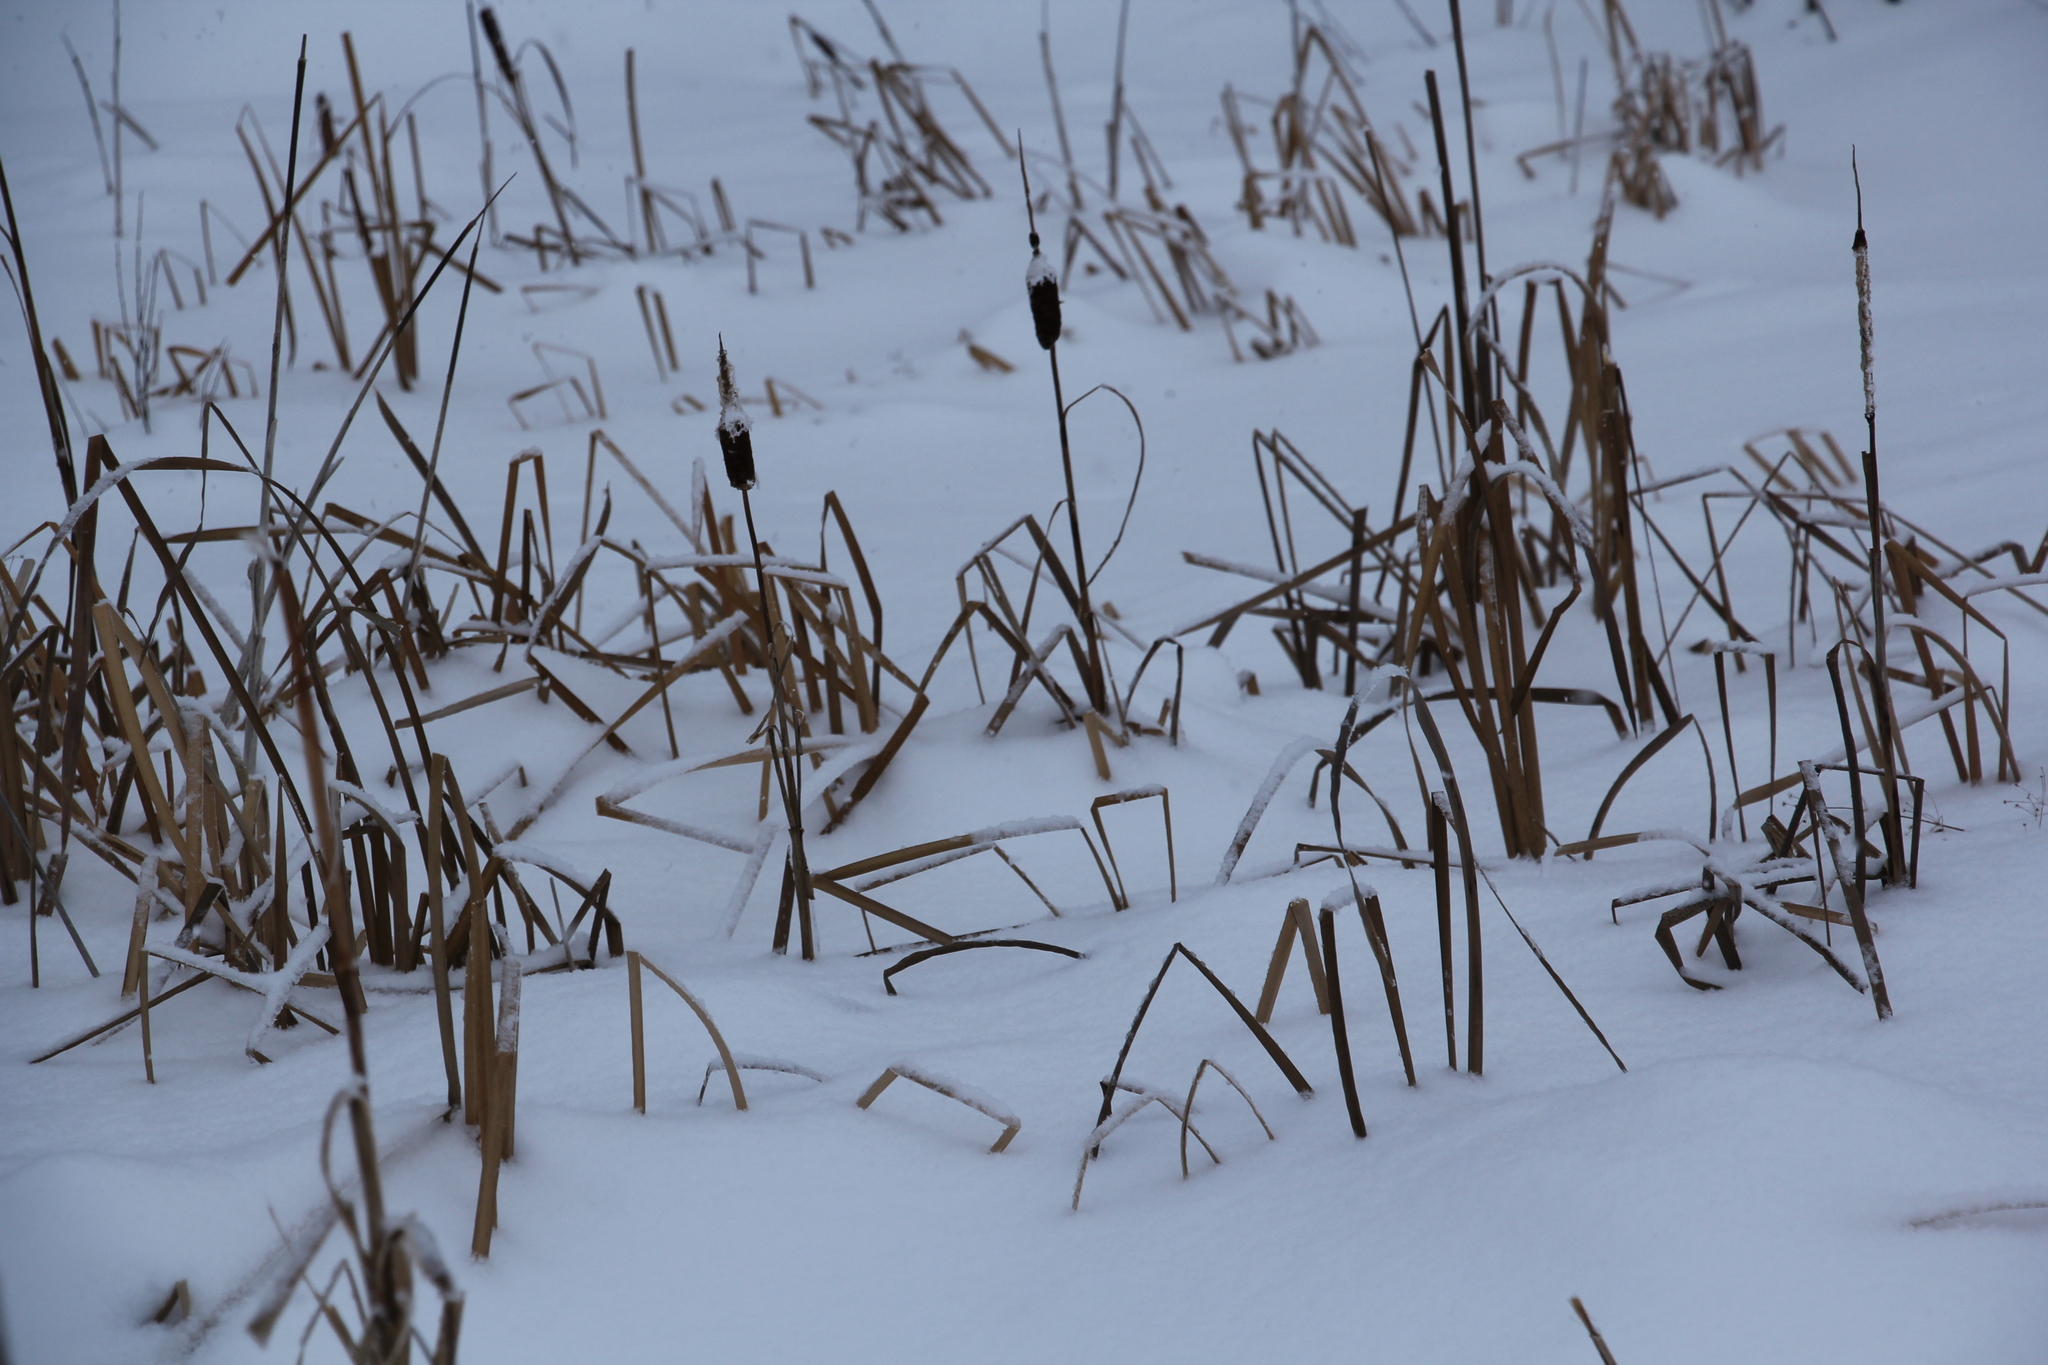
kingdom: Plantae
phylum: Tracheophyta
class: Liliopsida
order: Poales
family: Typhaceae
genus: Typha
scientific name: Typha latifolia
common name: Broadleaf cattail
